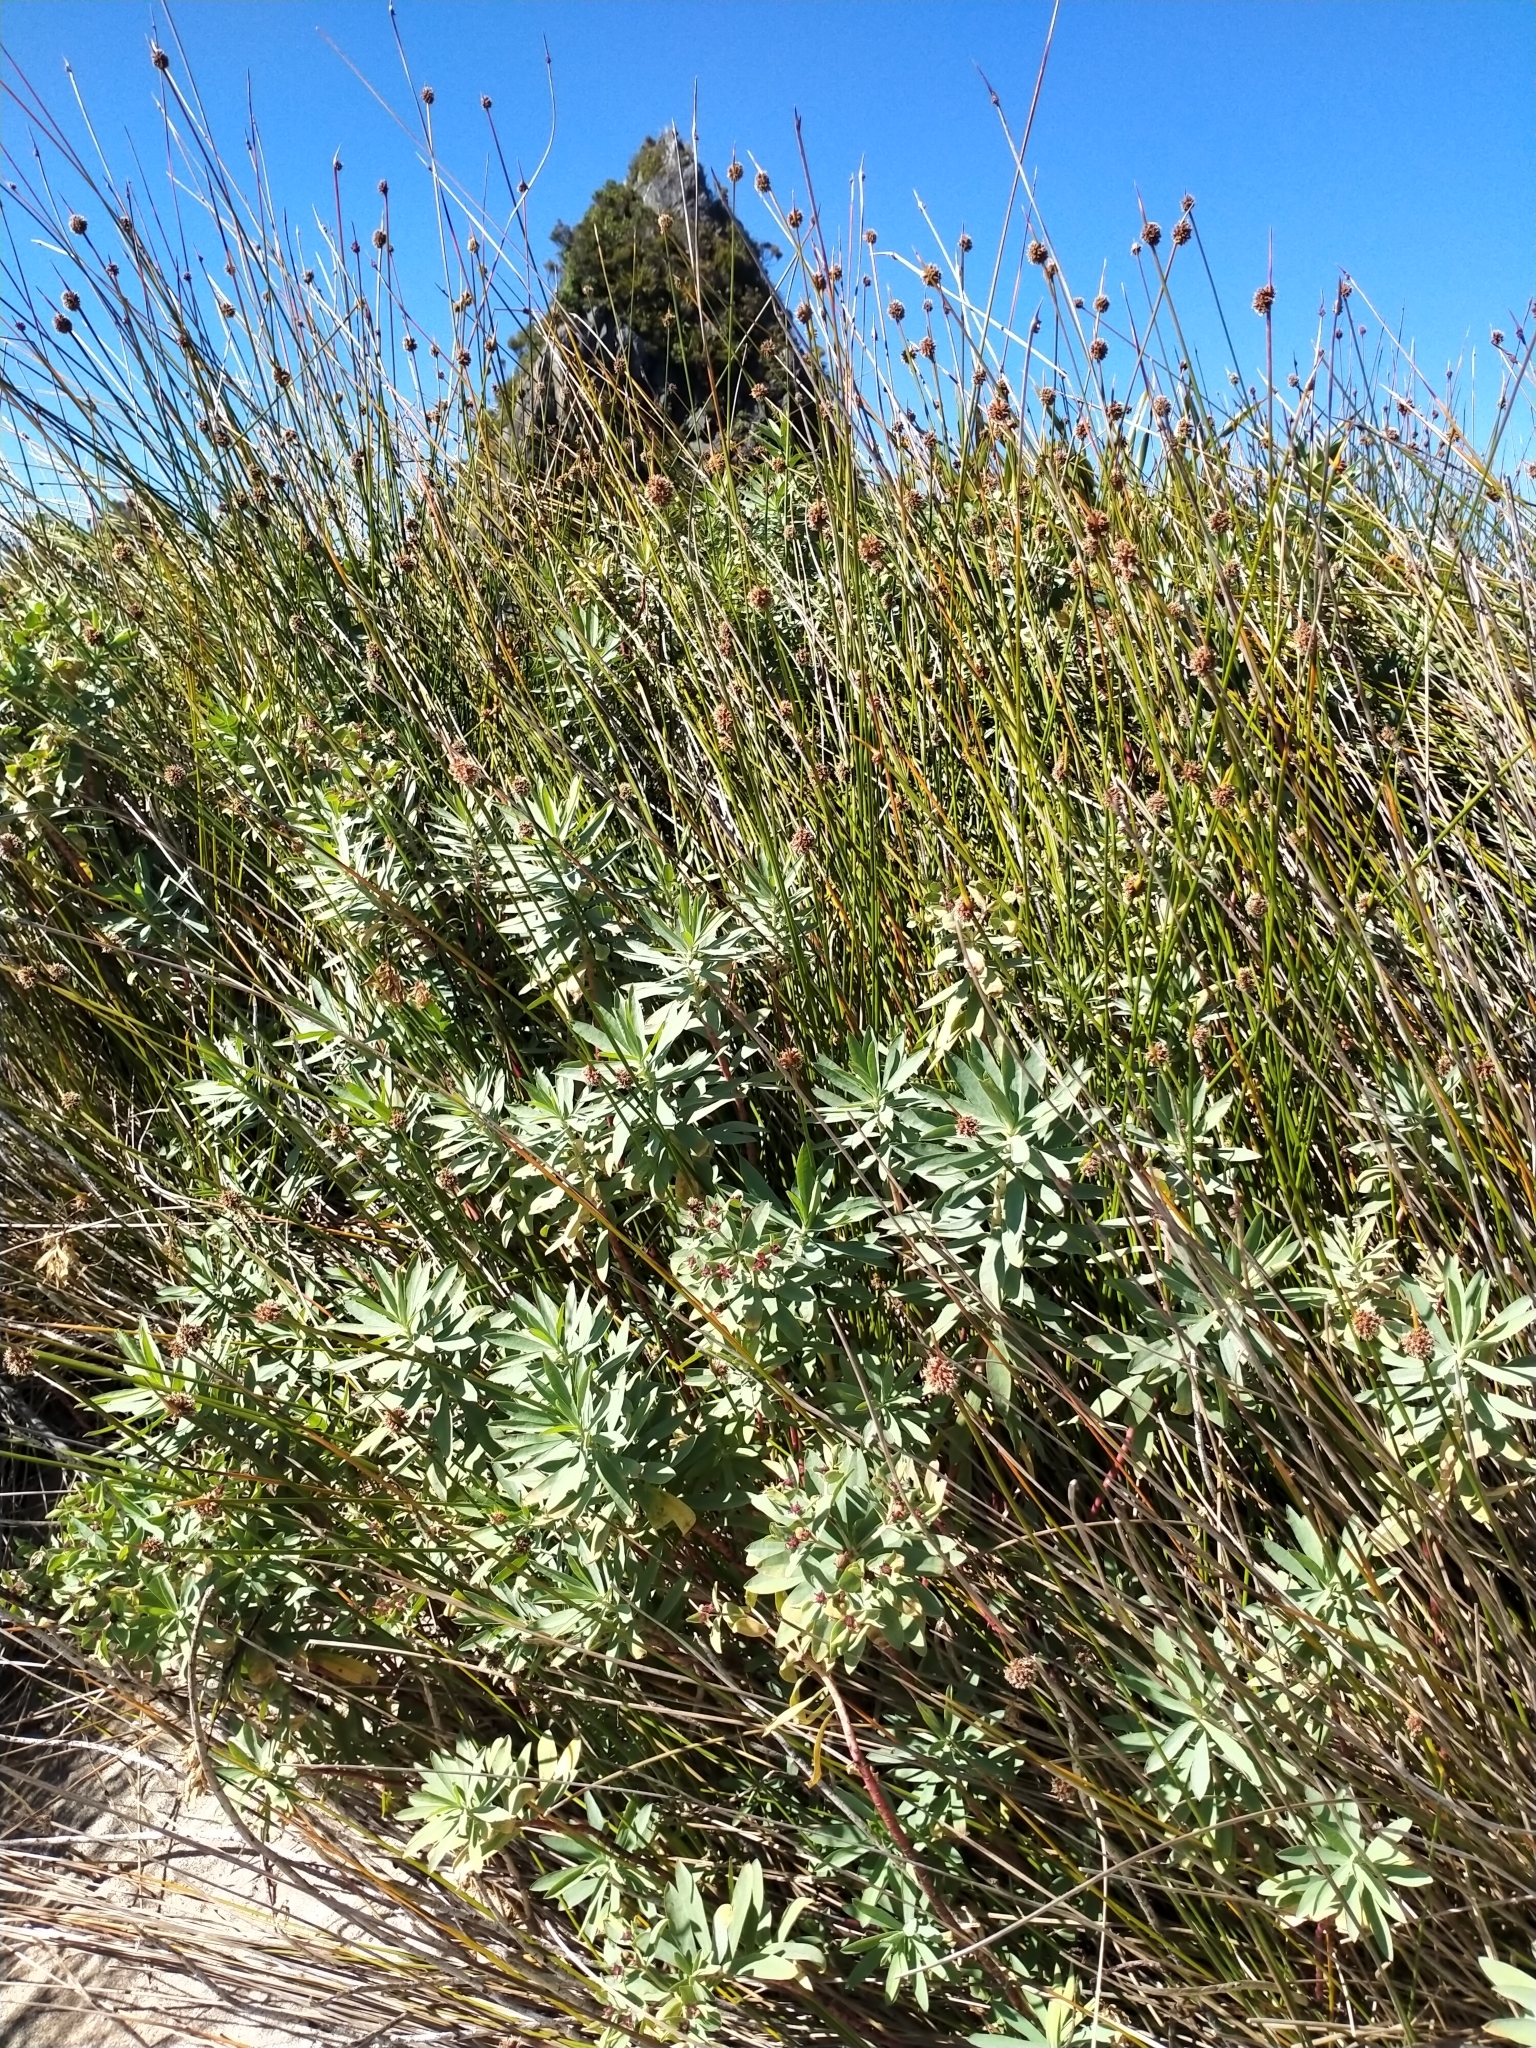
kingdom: Plantae
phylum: Tracheophyta
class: Magnoliopsida
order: Malpighiales
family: Euphorbiaceae
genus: Euphorbia
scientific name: Euphorbia glauca
